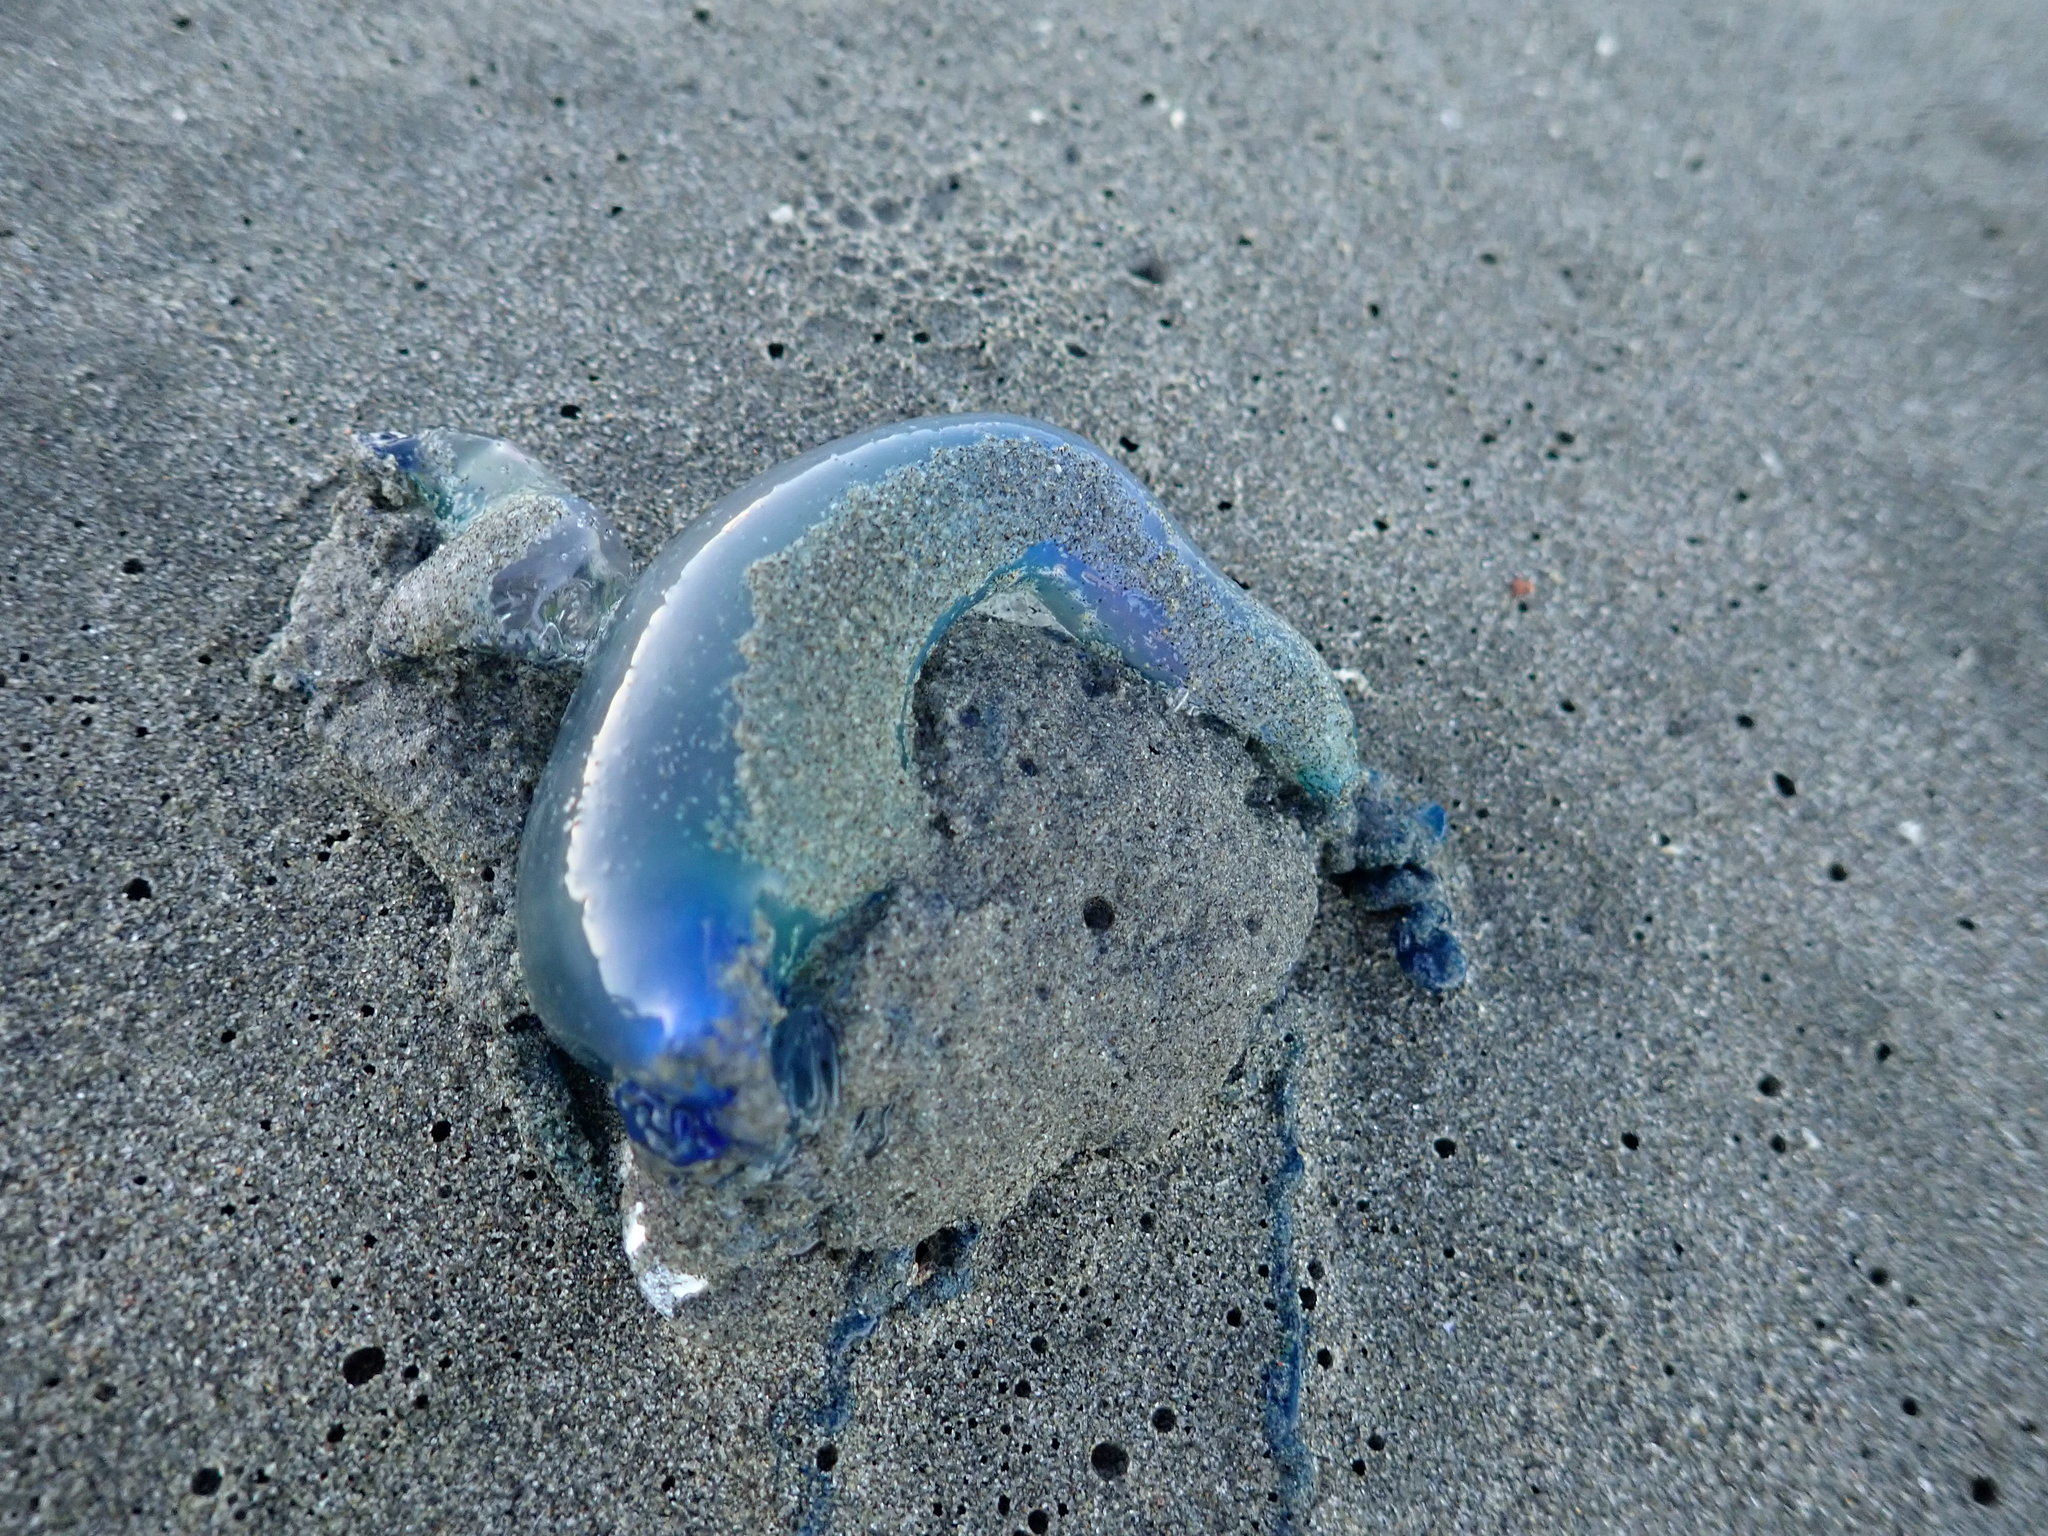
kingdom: Animalia
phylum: Cnidaria
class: Hydrozoa
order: Siphonophorae
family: Physaliidae
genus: Physalia
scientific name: Physalia physalis
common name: Portuguese man-of-war
